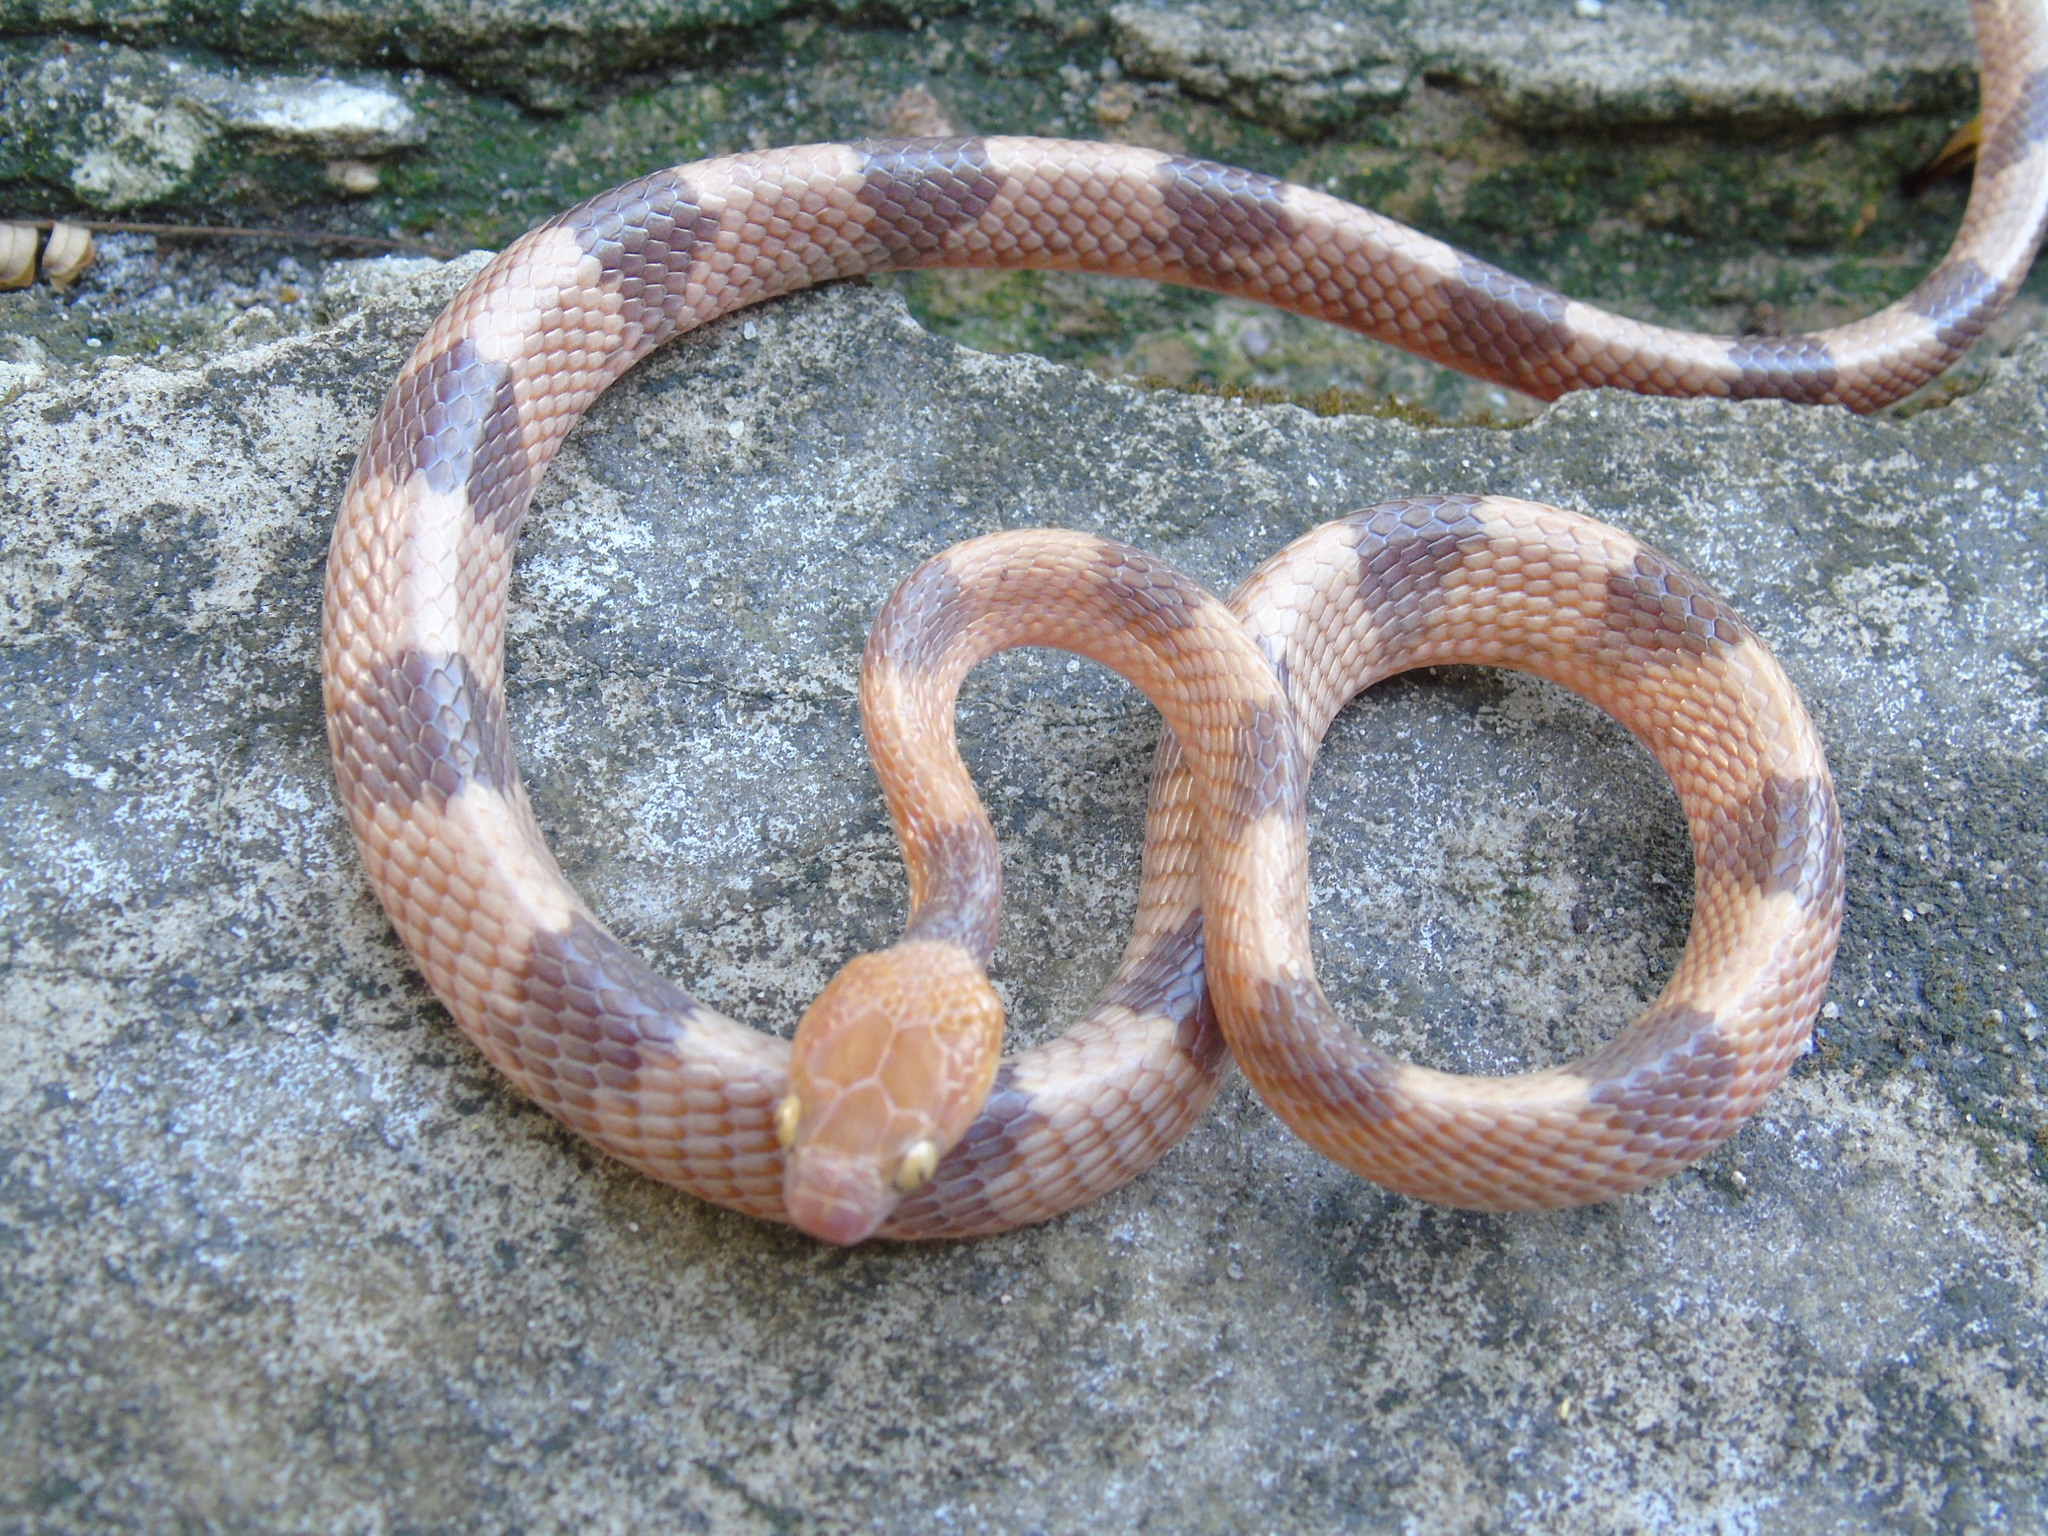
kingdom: Animalia
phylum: Chordata
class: Squamata
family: Colubridae
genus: Telescopus
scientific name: Telescopus semiannulatus
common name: Common tiger snake
